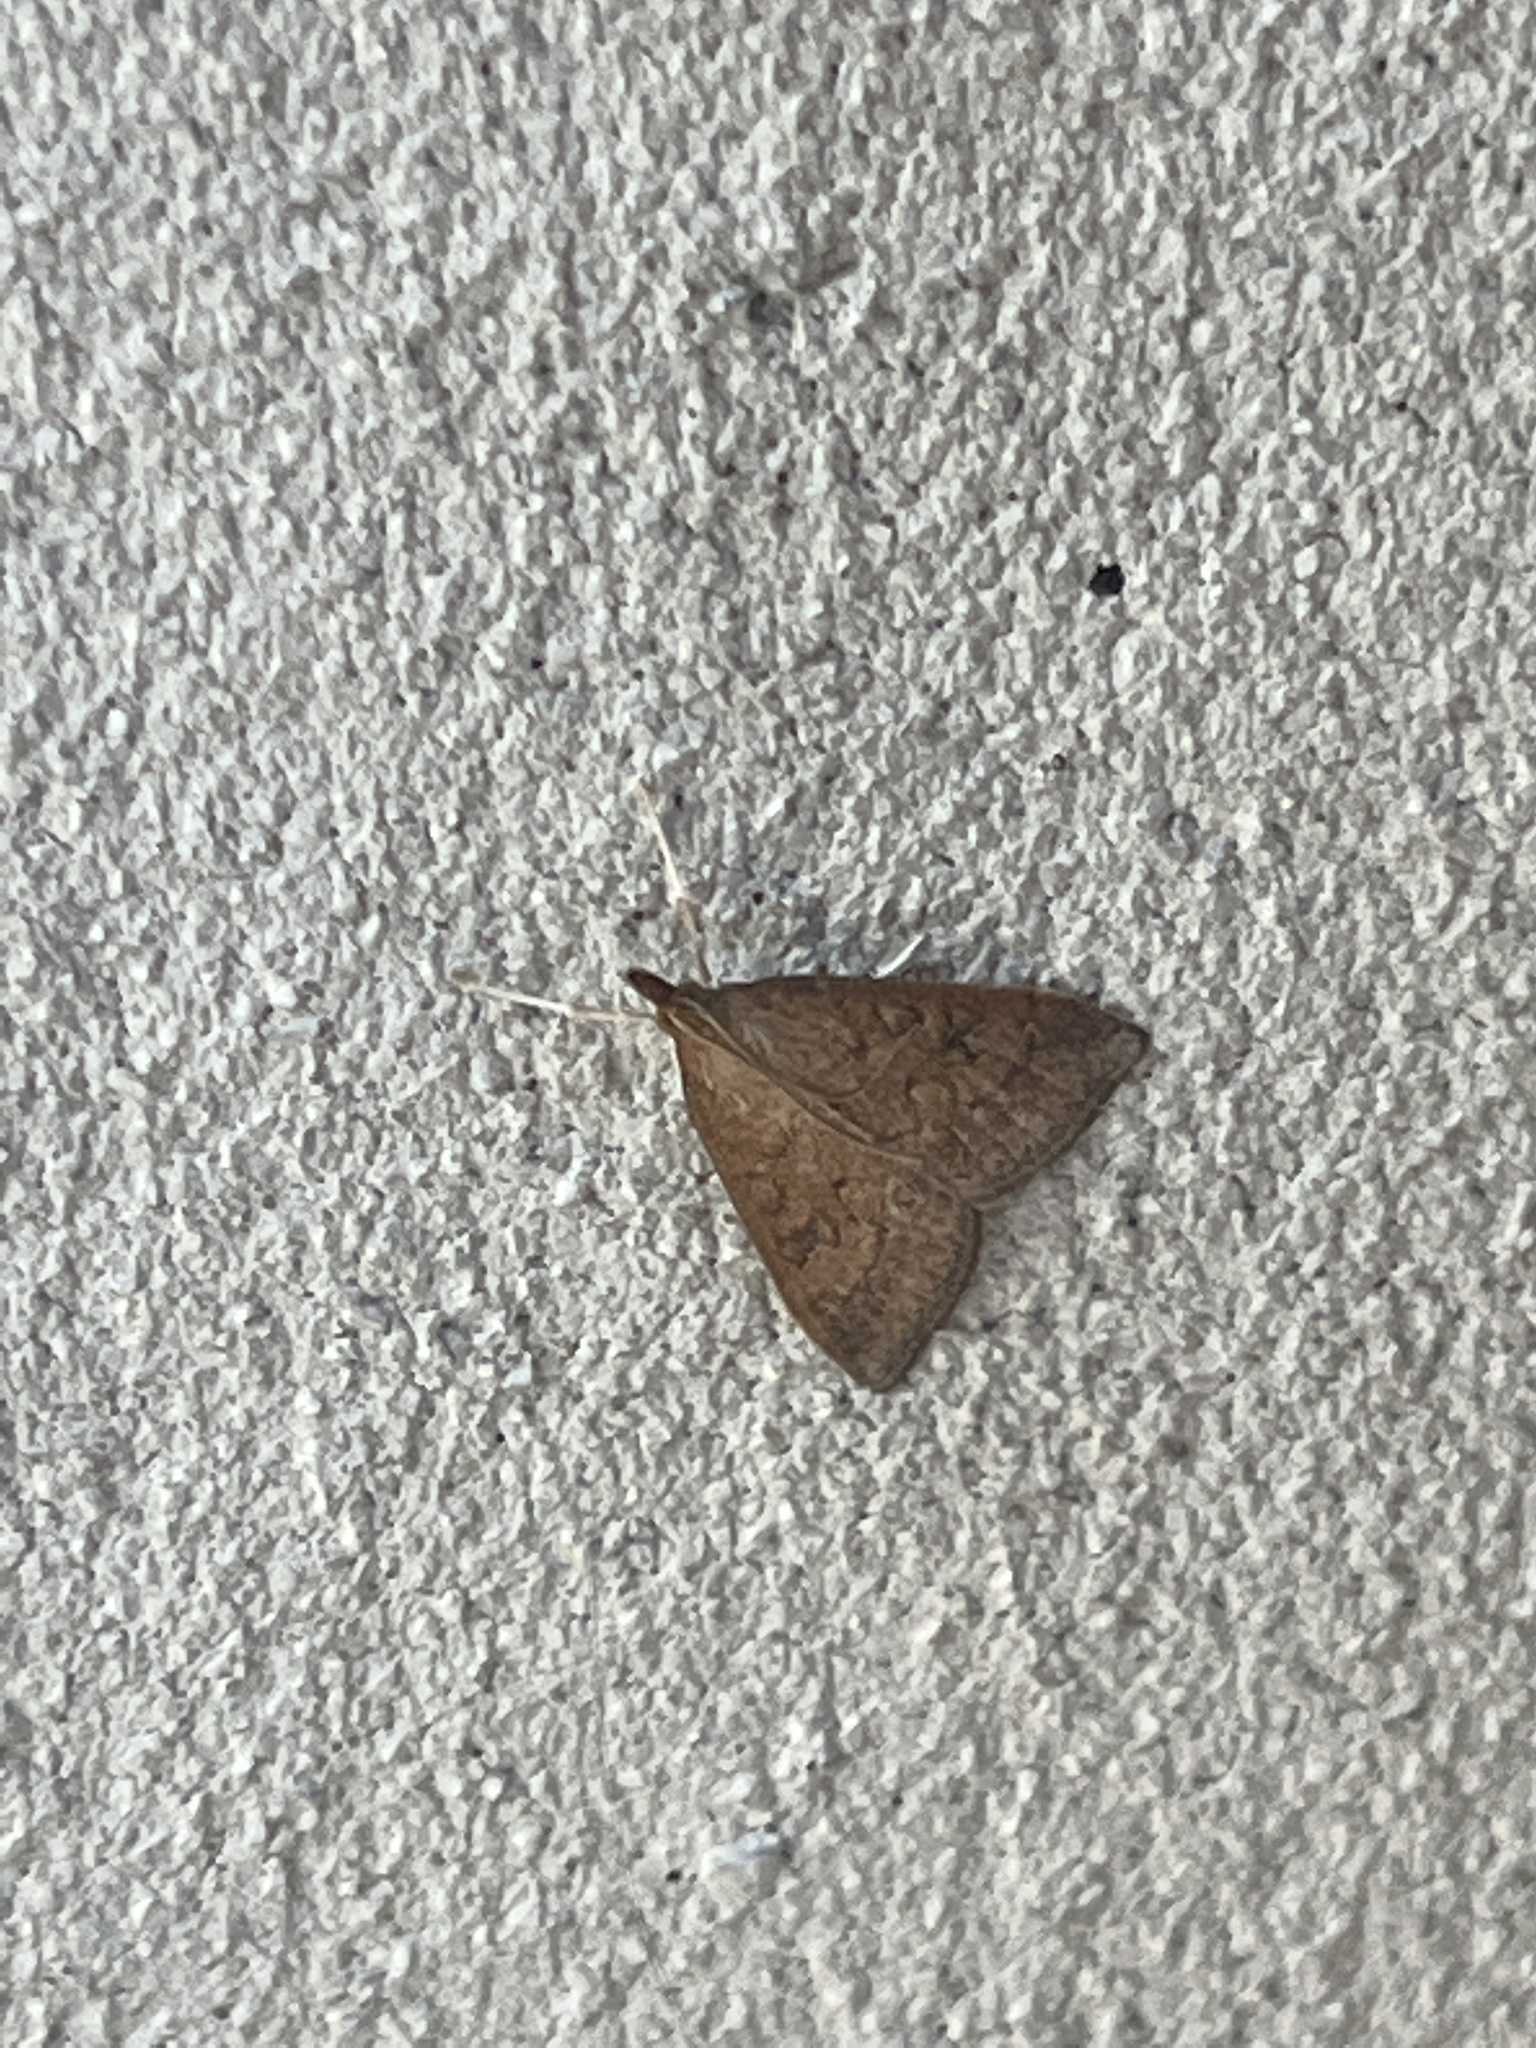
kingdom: Animalia
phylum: Arthropoda
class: Insecta
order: Lepidoptera
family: Crambidae
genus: Udea
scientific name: Udea rubigalis
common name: Celery leaftier moth
